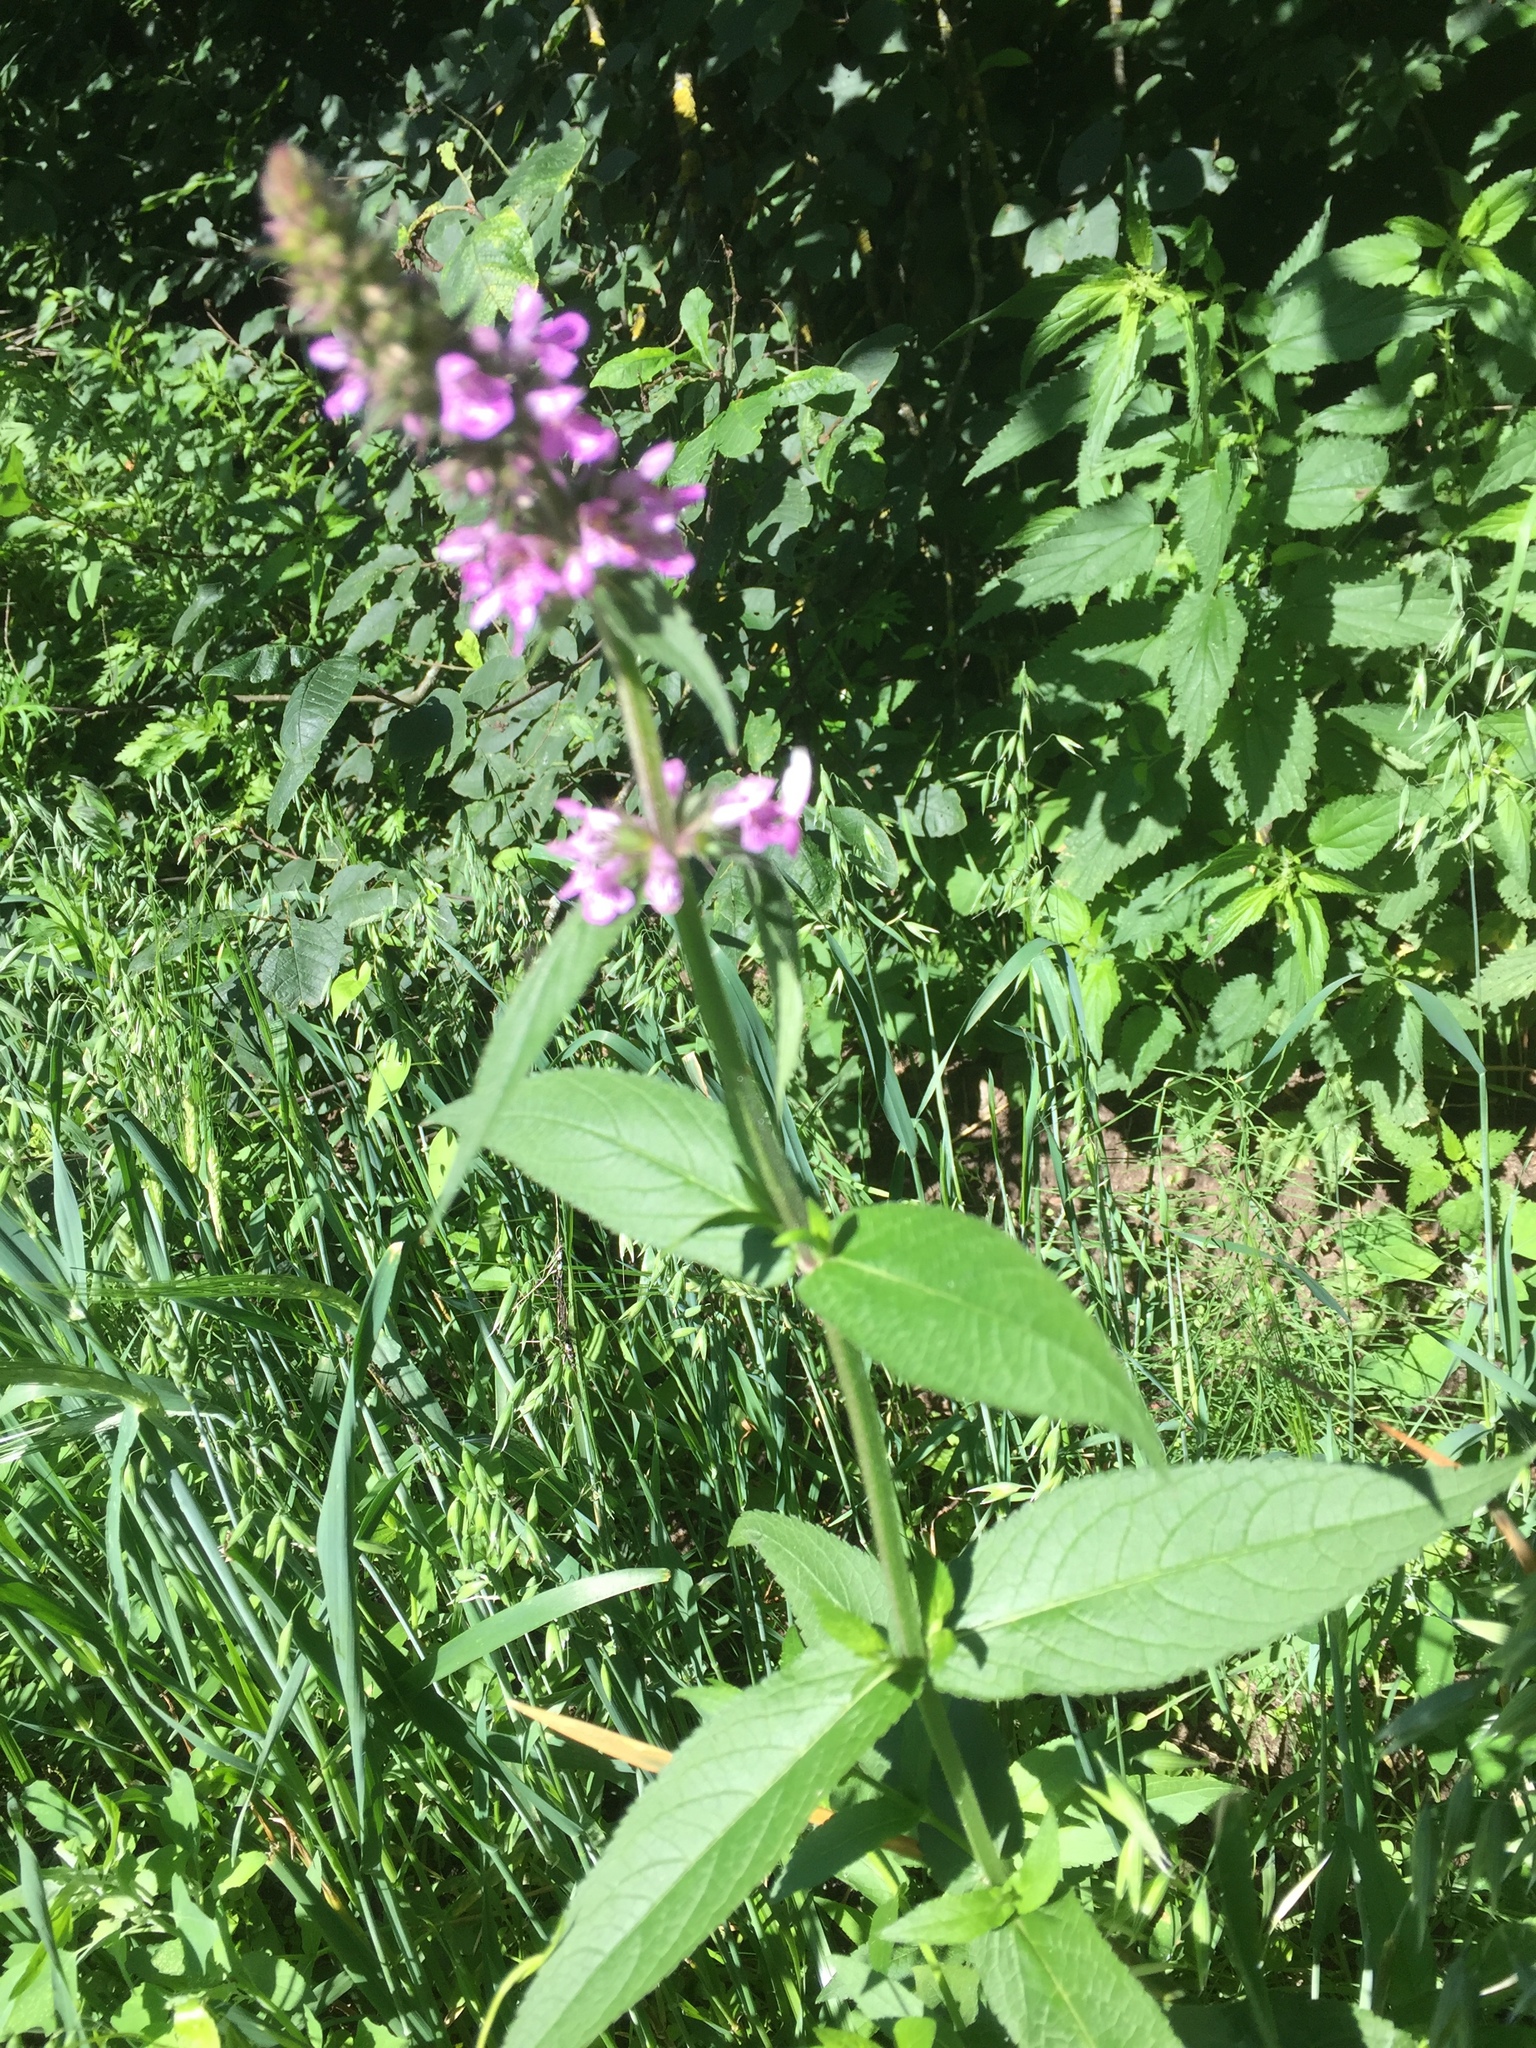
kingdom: Plantae
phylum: Tracheophyta
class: Magnoliopsida
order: Lamiales
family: Lamiaceae
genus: Stachys
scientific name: Stachys palustris
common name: Marsh woundwort
